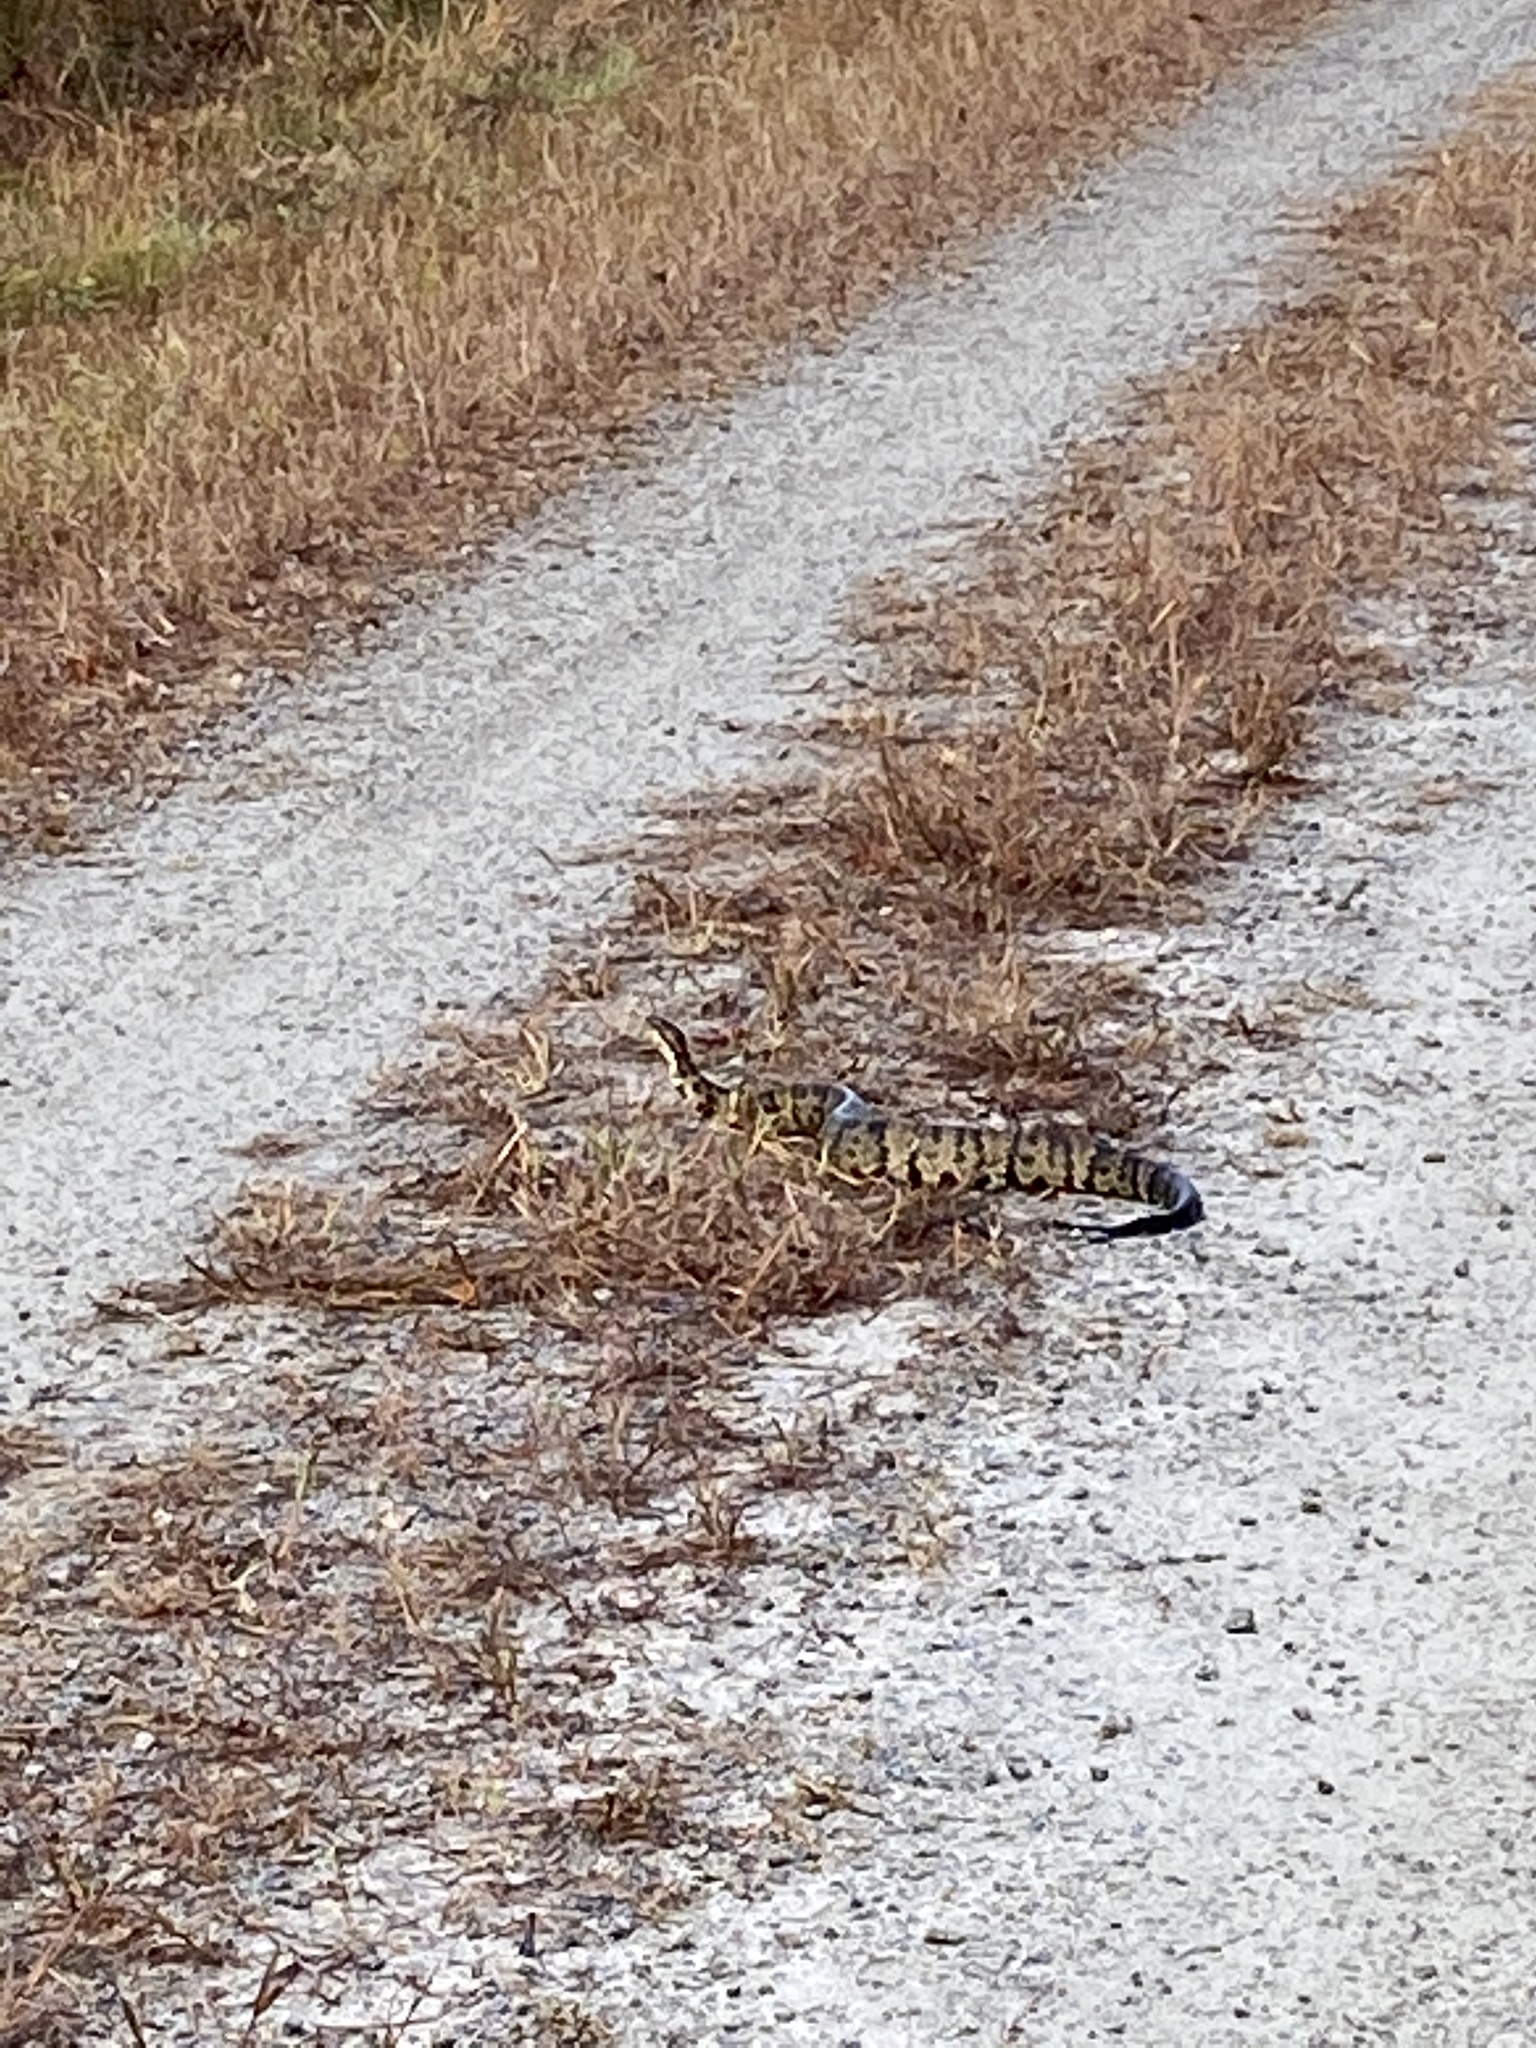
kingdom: Animalia
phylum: Chordata
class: Squamata
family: Viperidae
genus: Agkistrodon
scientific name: Agkistrodon piscivorus
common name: Cottonmouth
